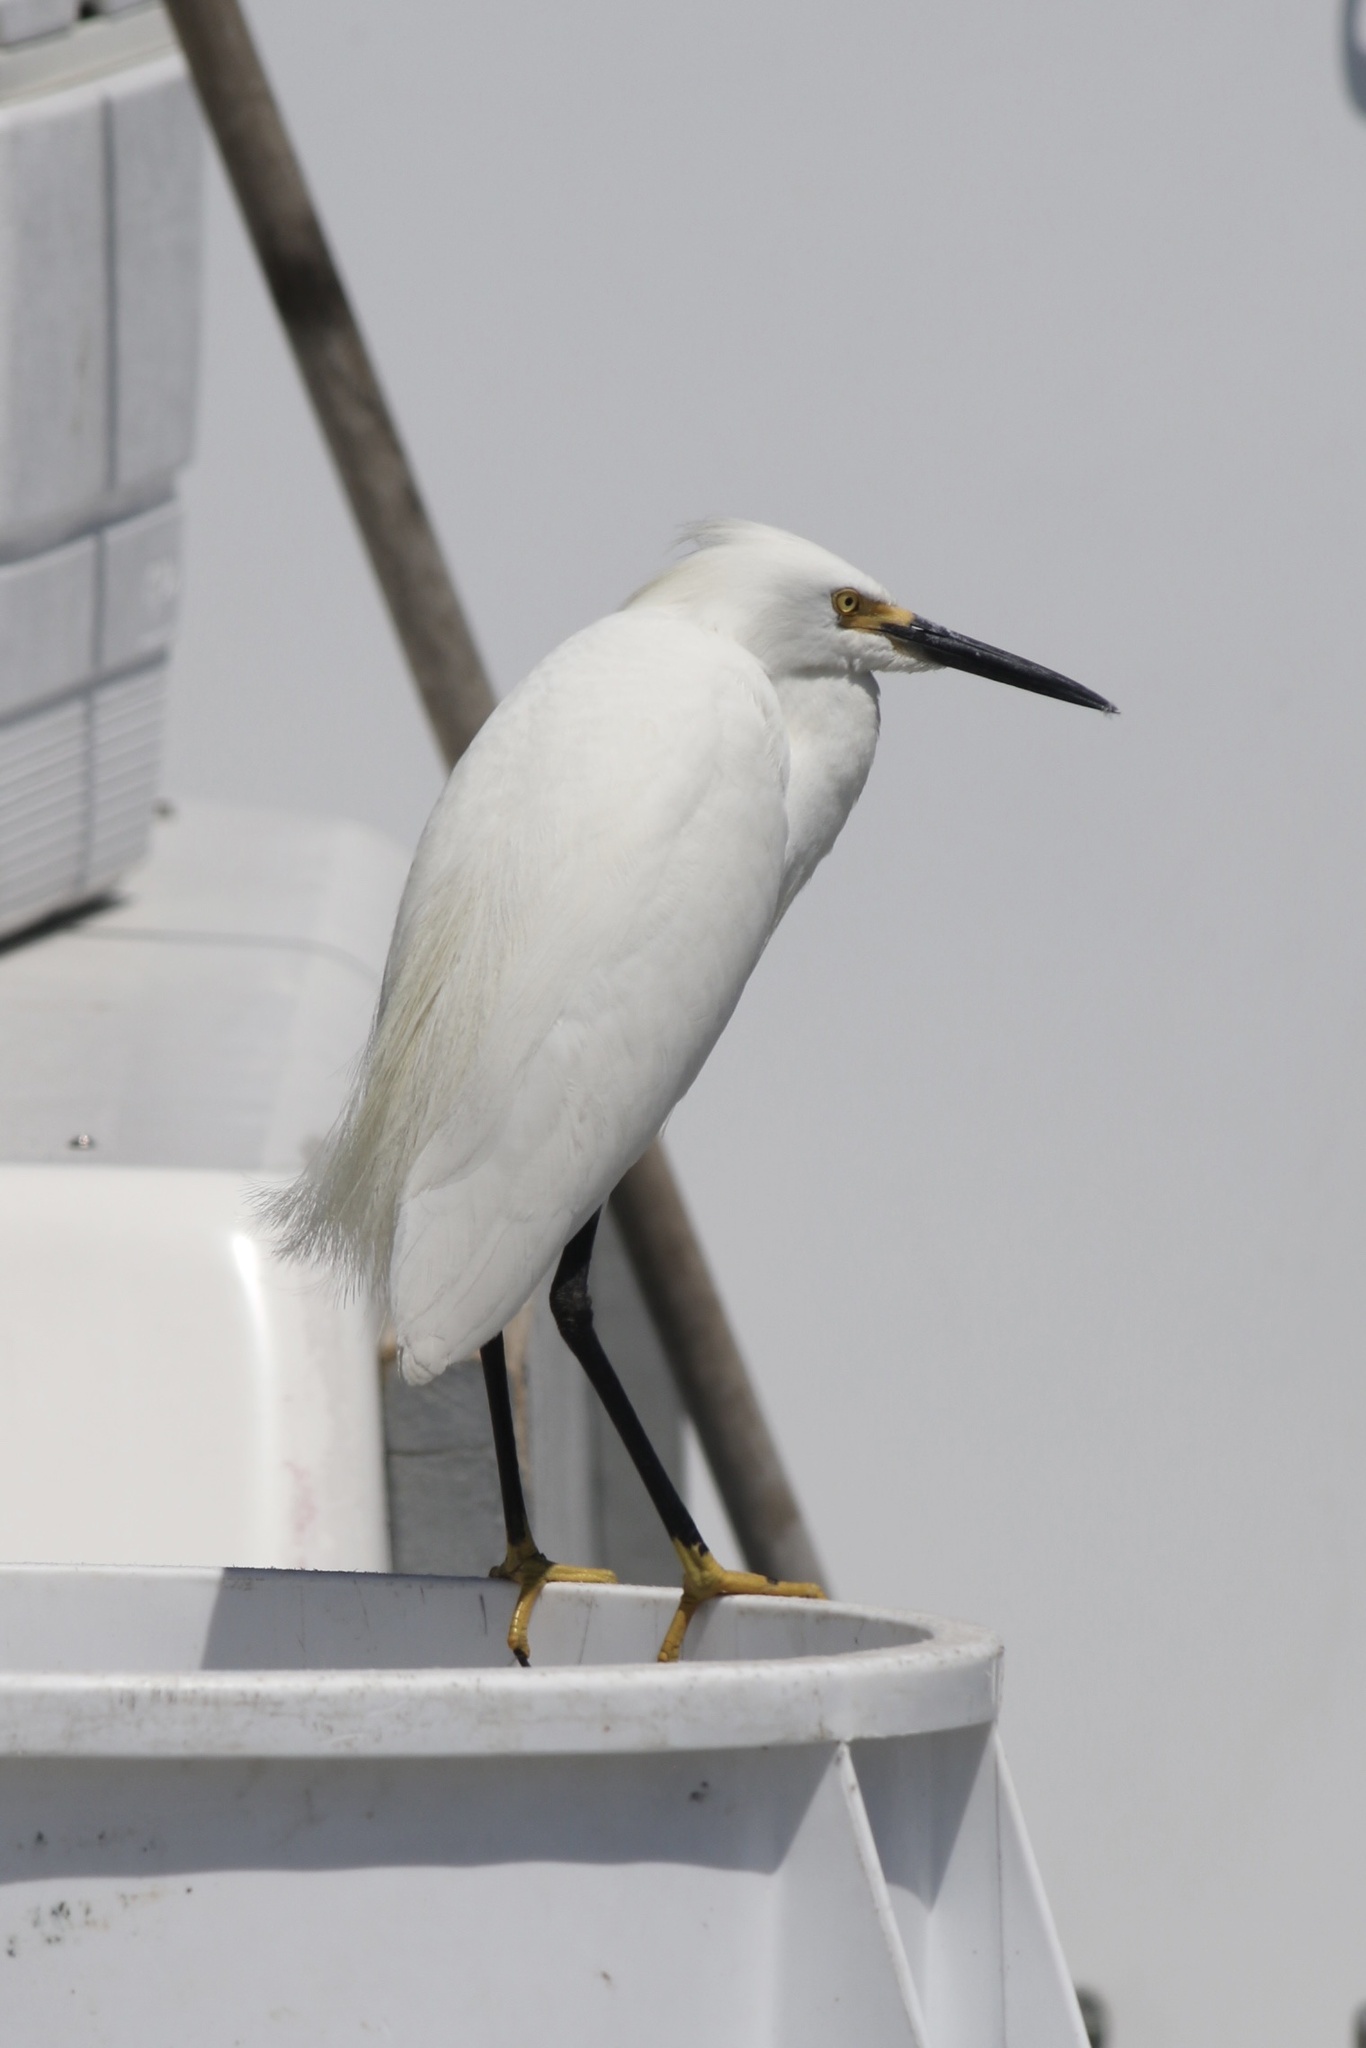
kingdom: Animalia
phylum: Chordata
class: Aves
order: Pelecaniformes
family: Ardeidae
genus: Egretta
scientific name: Egretta thula
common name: Snowy egret
